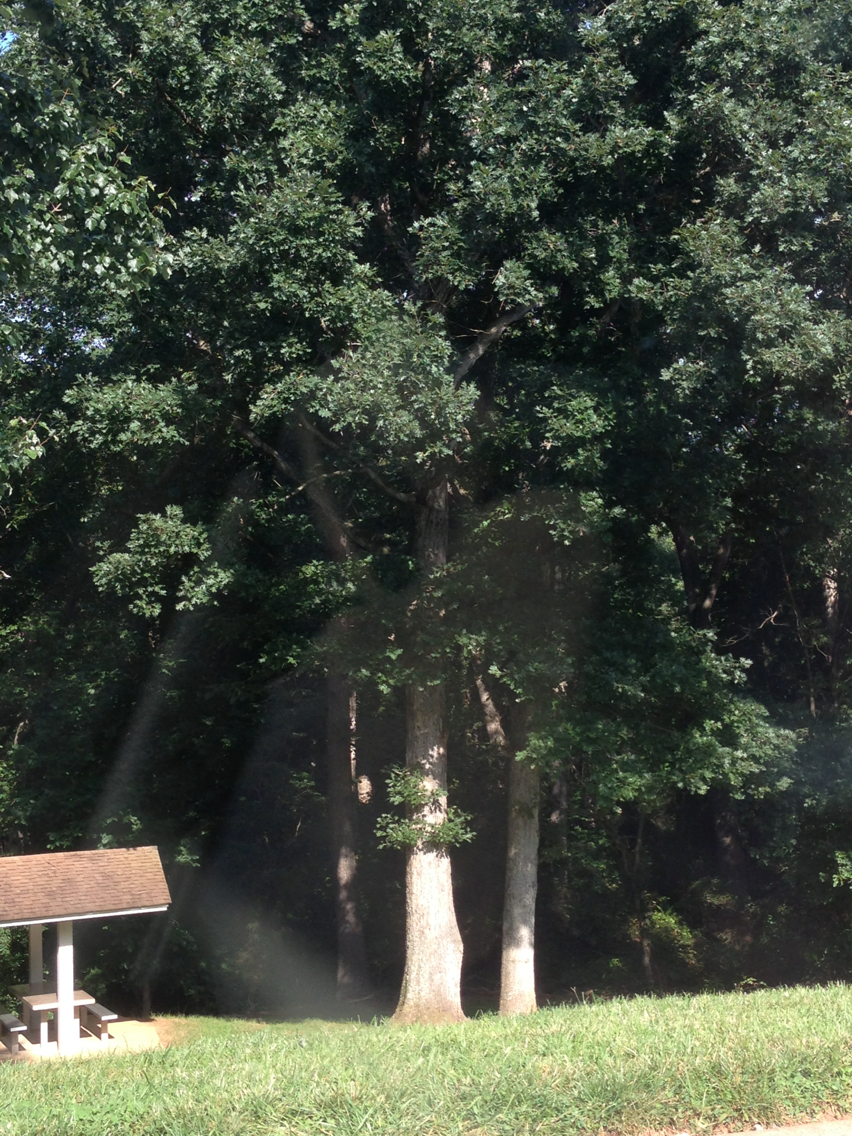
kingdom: Plantae
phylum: Tracheophyta
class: Magnoliopsida
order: Fagales
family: Fagaceae
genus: Quercus
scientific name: Quercus alba
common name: White oak
